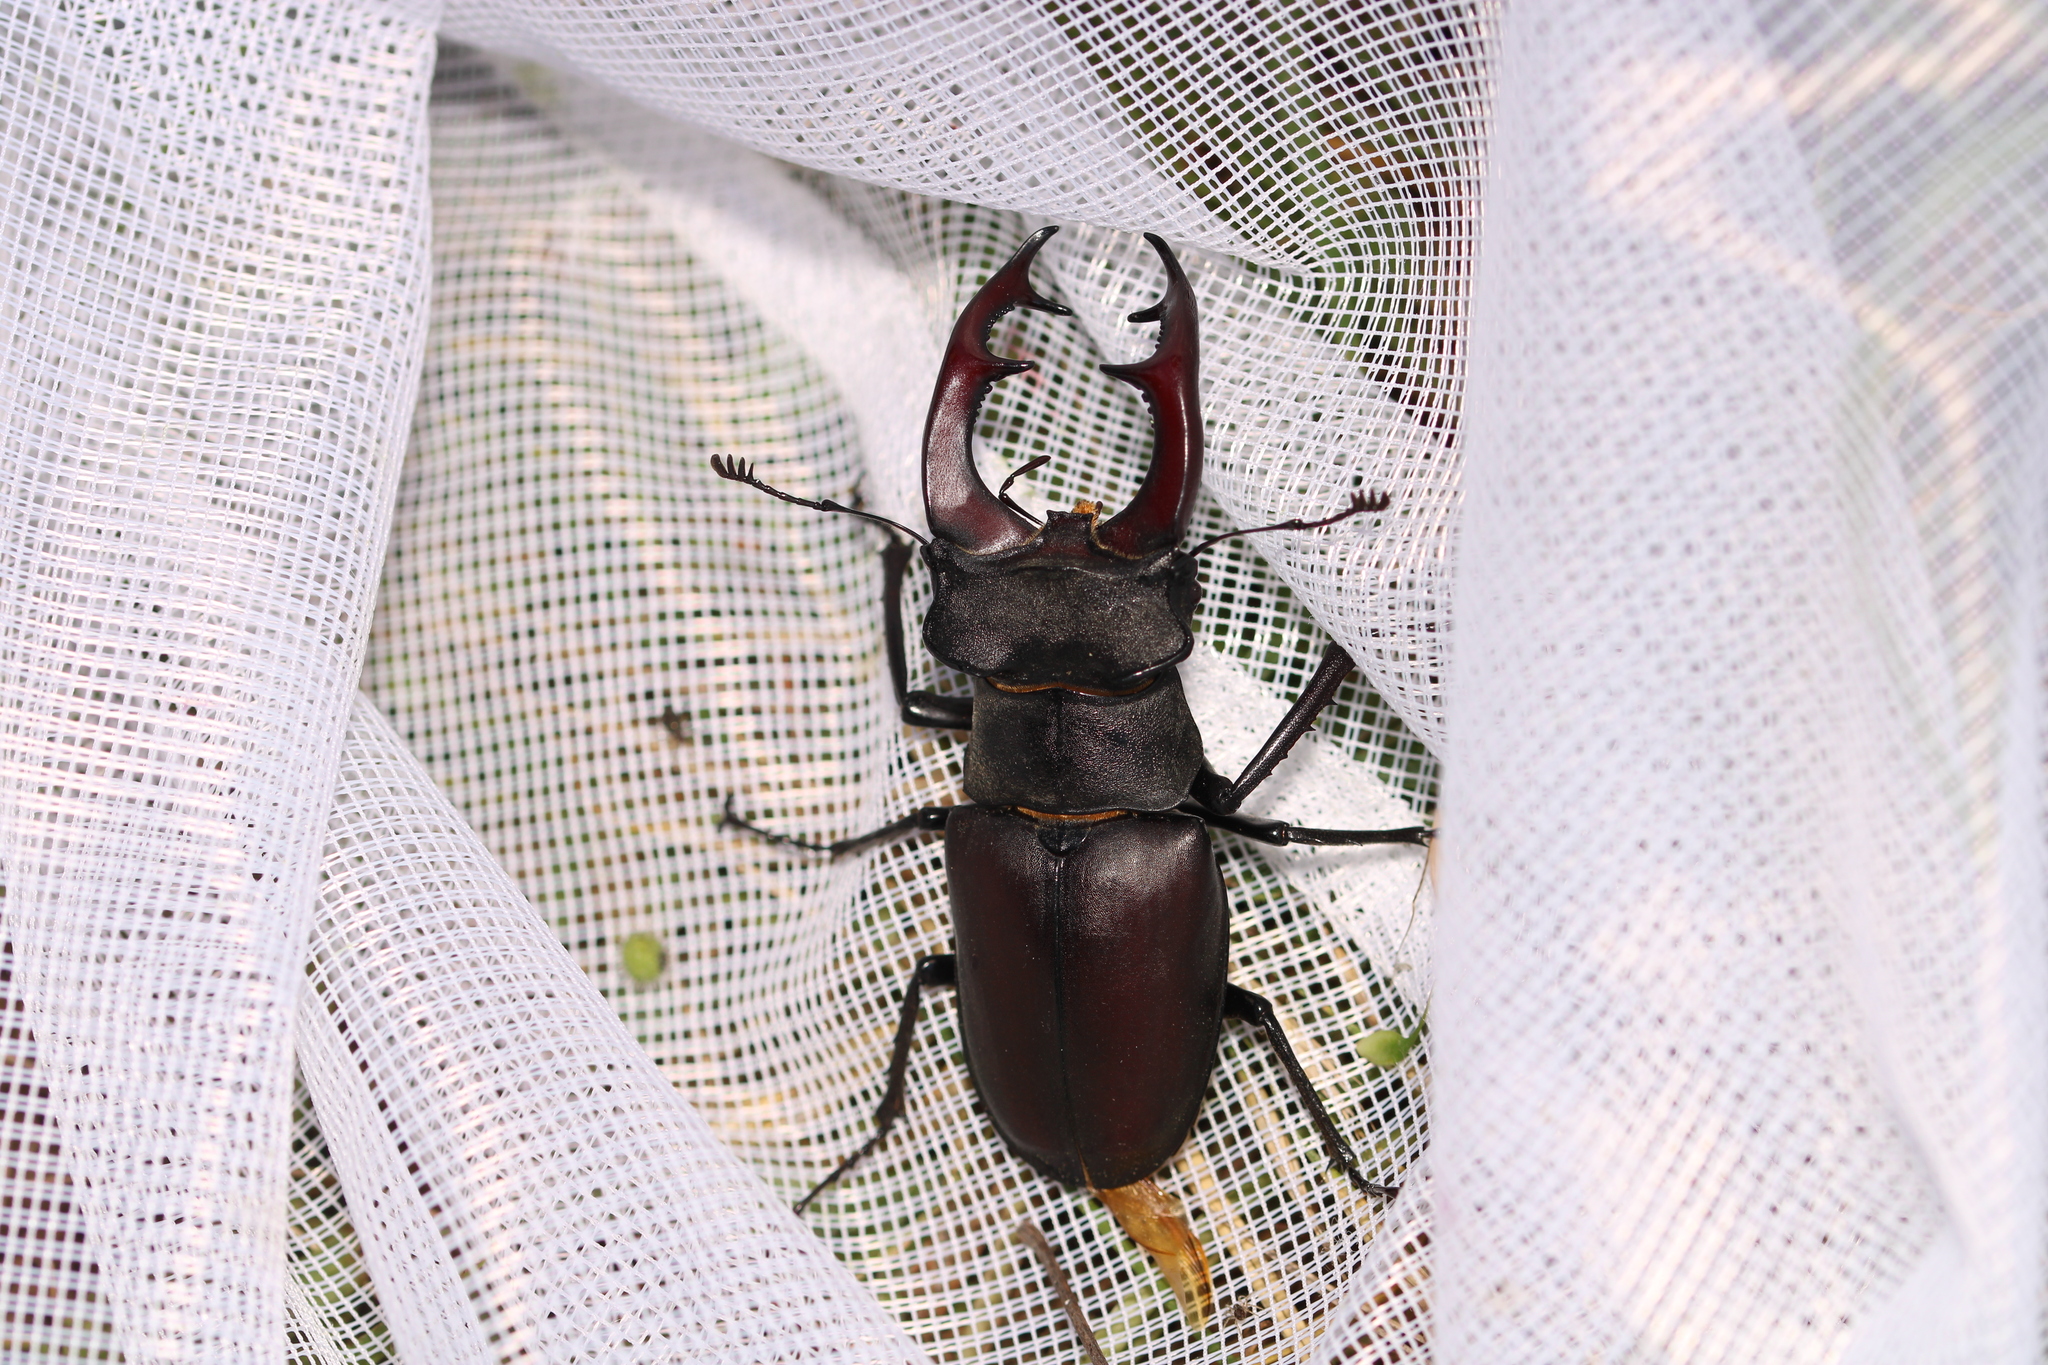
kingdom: Animalia
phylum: Arthropoda
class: Insecta
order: Coleoptera
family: Lucanidae
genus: Lucanus
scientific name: Lucanus cervus
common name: Stag beetle
